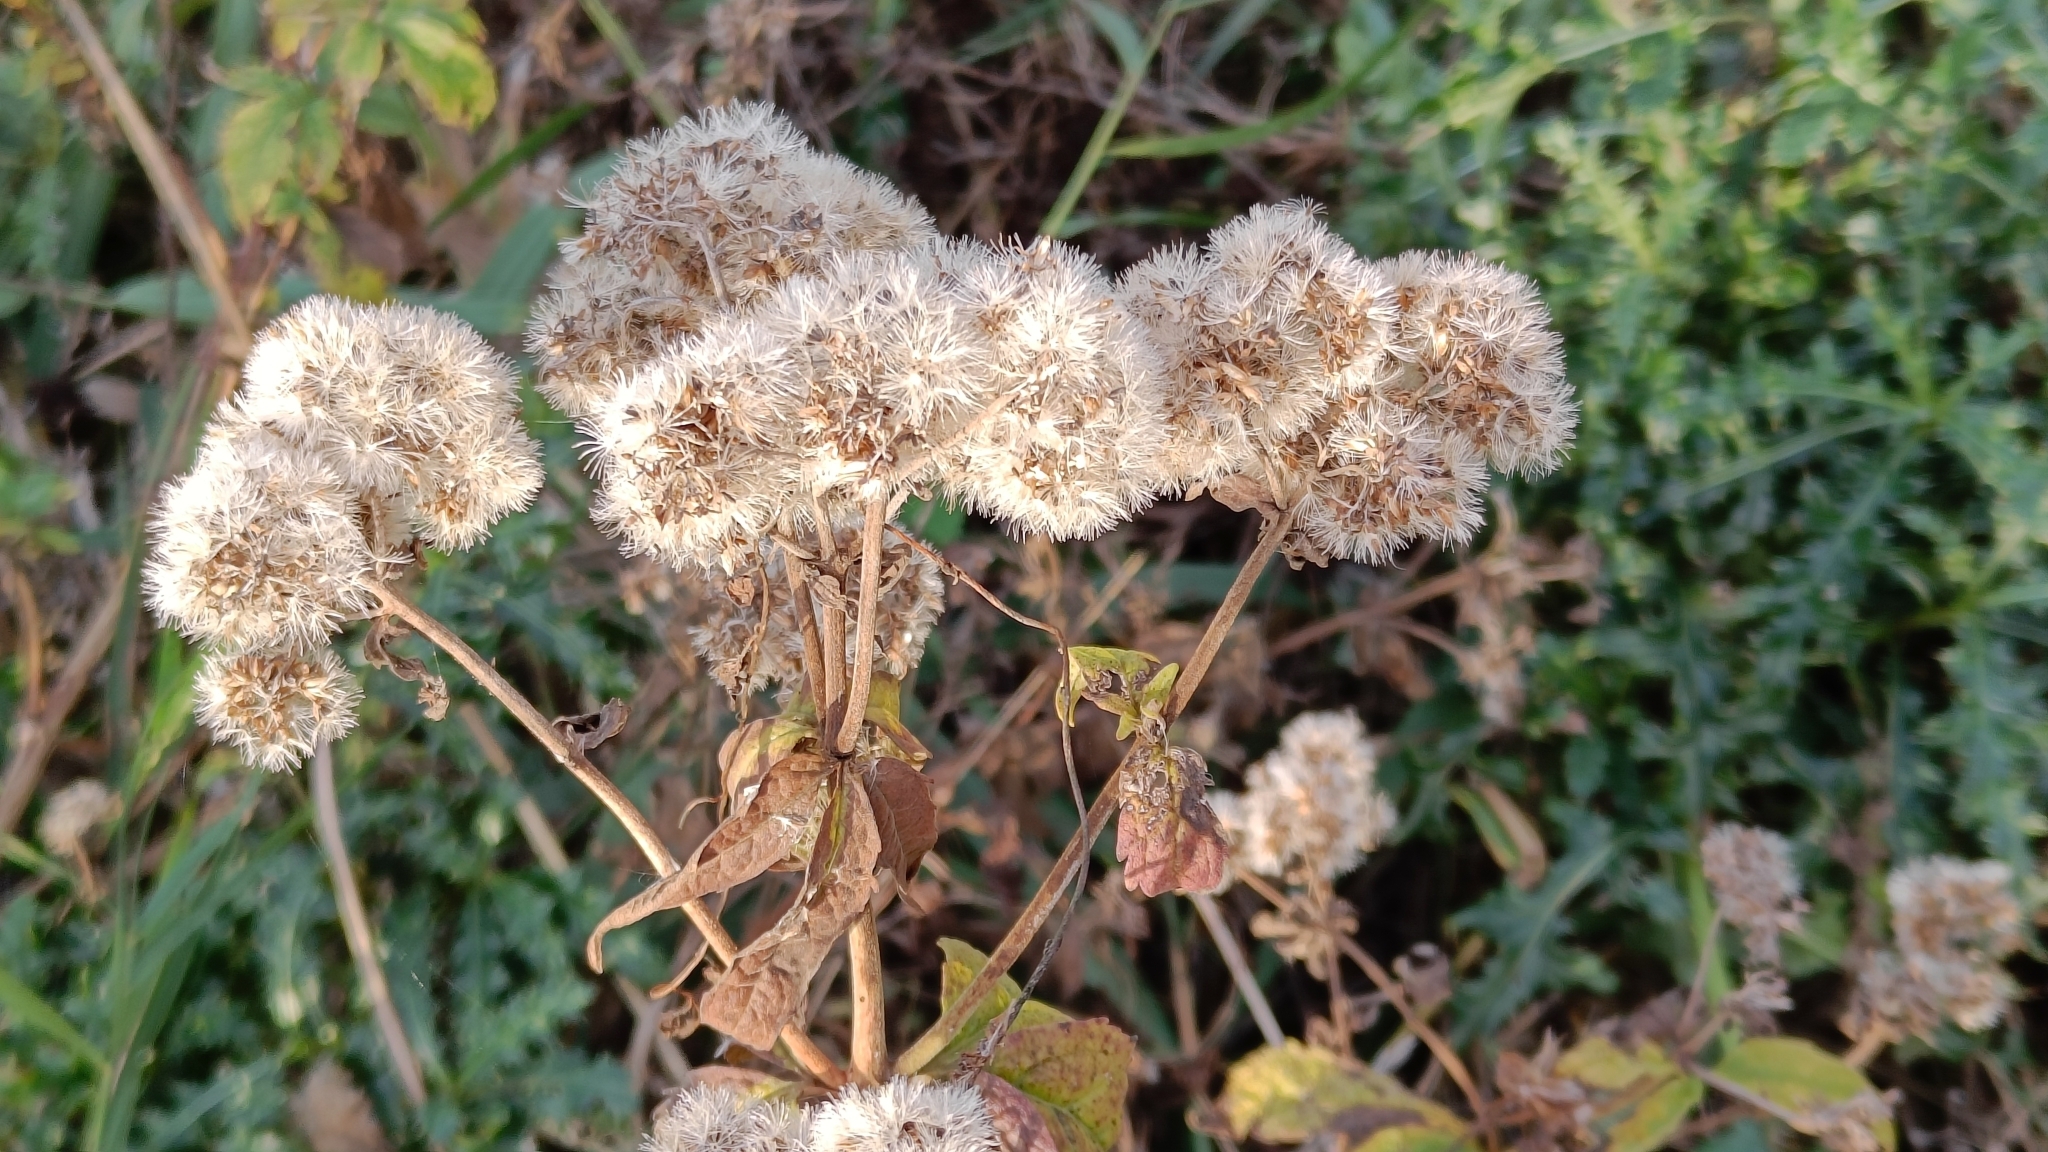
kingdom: Plantae
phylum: Tracheophyta
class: Magnoliopsida
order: Asterales
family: Asteraceae
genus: Eupatorium
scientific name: Eupatorium cannabinum
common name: Hemp-agrimony
